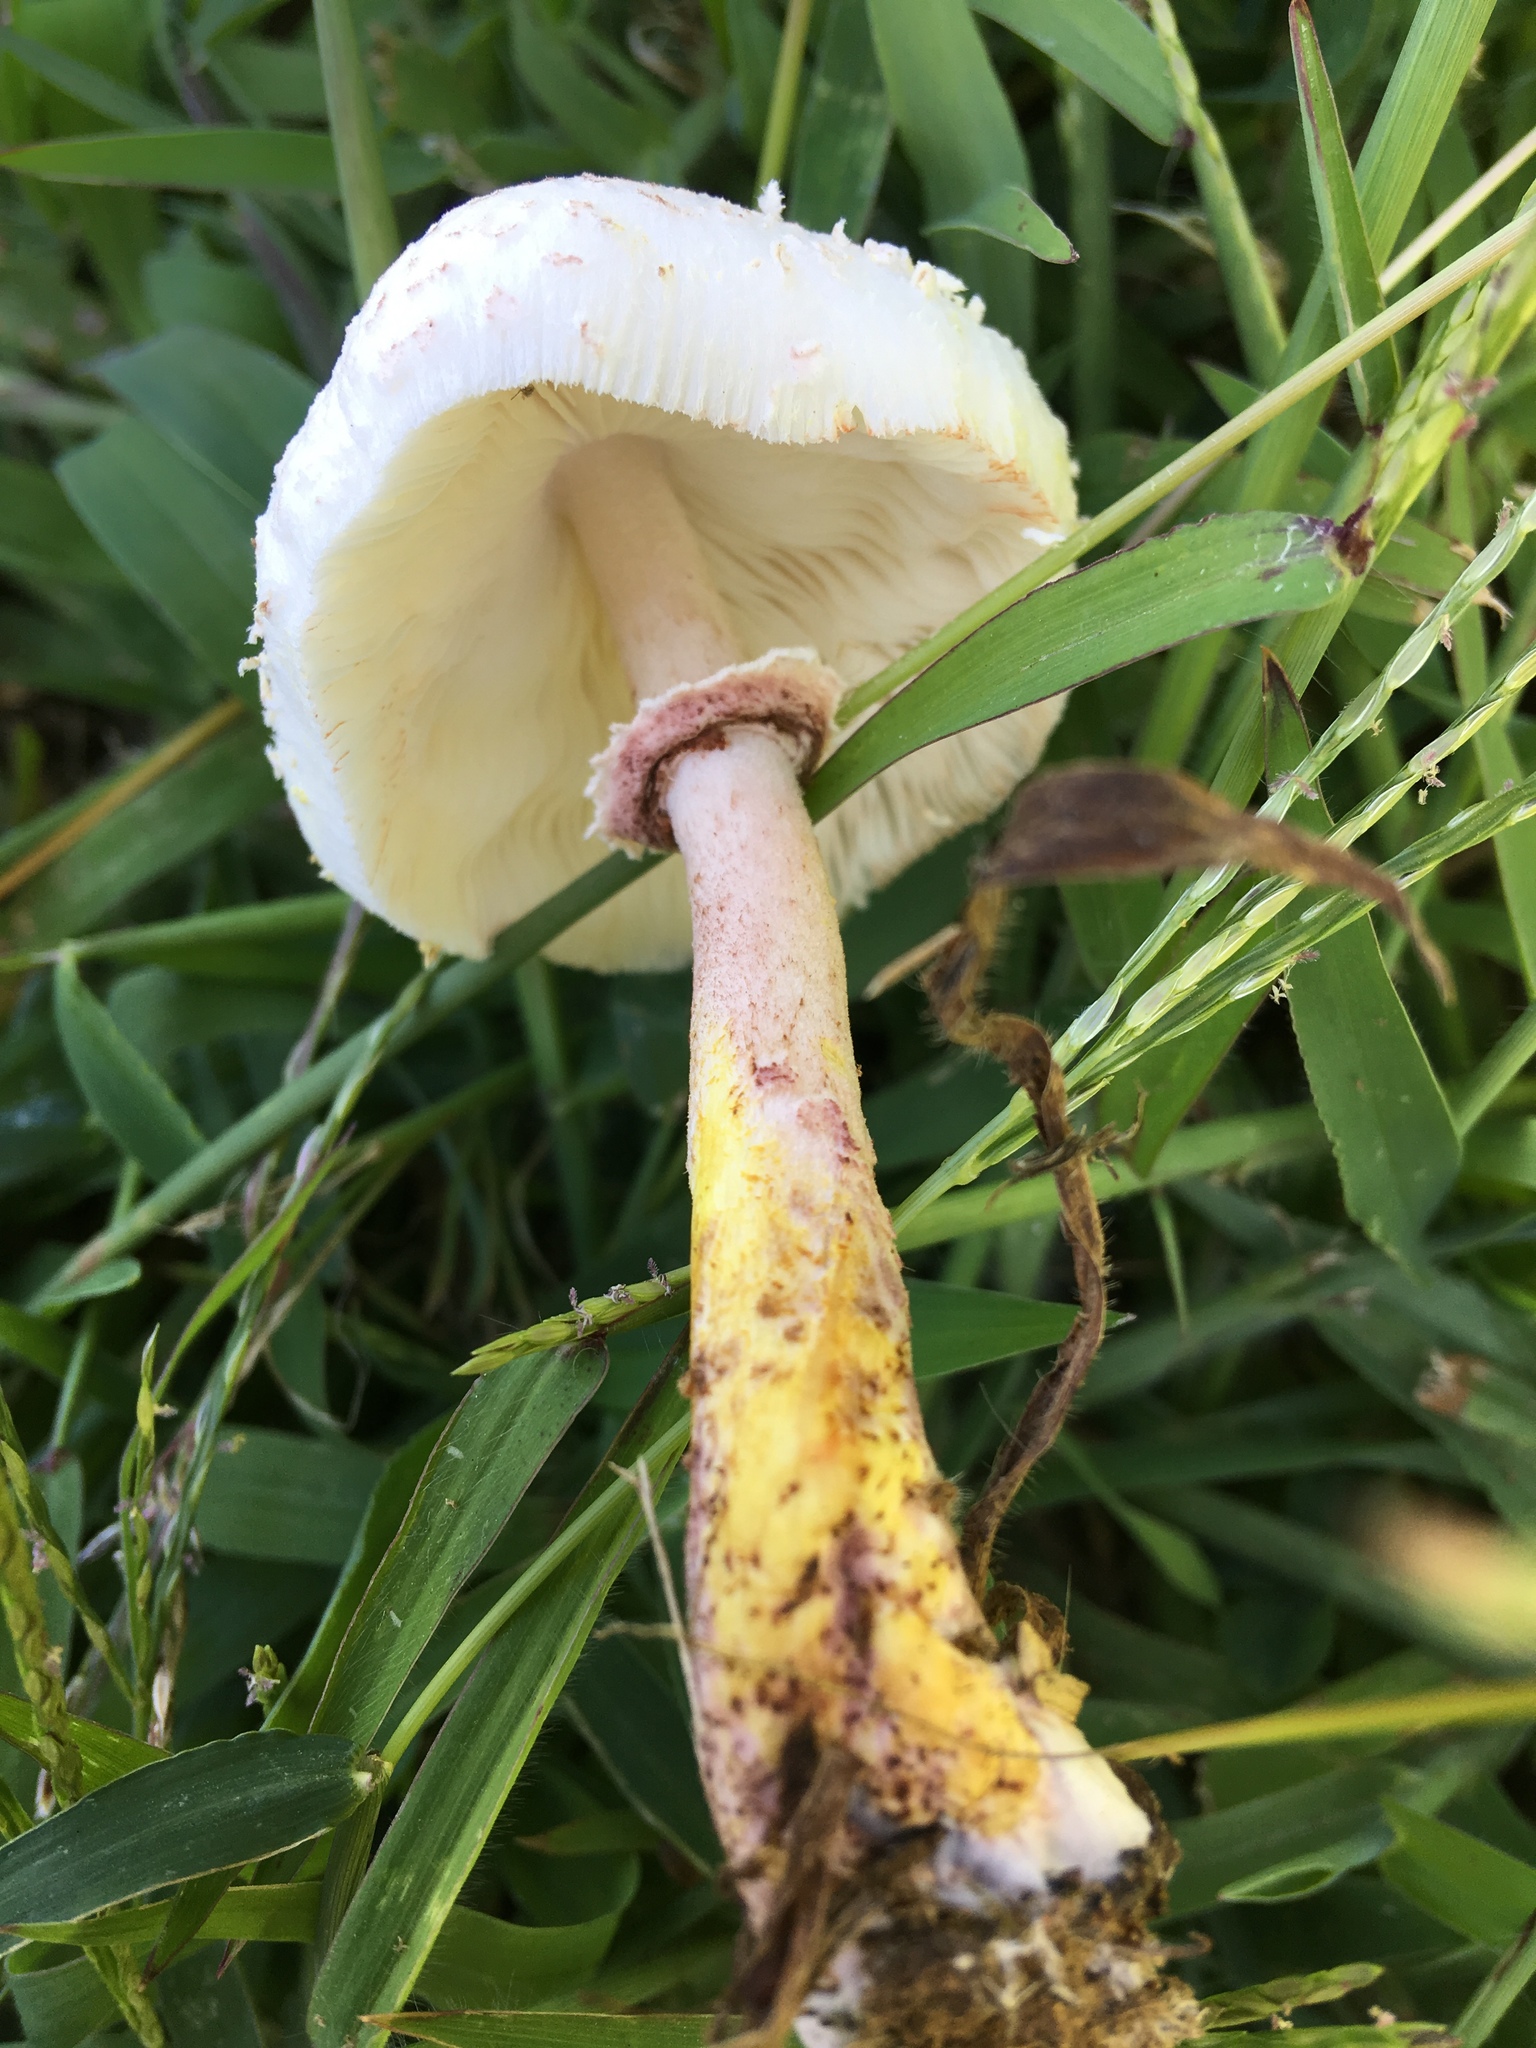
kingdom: Fungi
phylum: Basidiomycota
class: Agaricomycetes
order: Agaricales
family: Agaricaceae
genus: Leucoagaricus
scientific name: Leucoagaricus americanus
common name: Reddening lepiota
